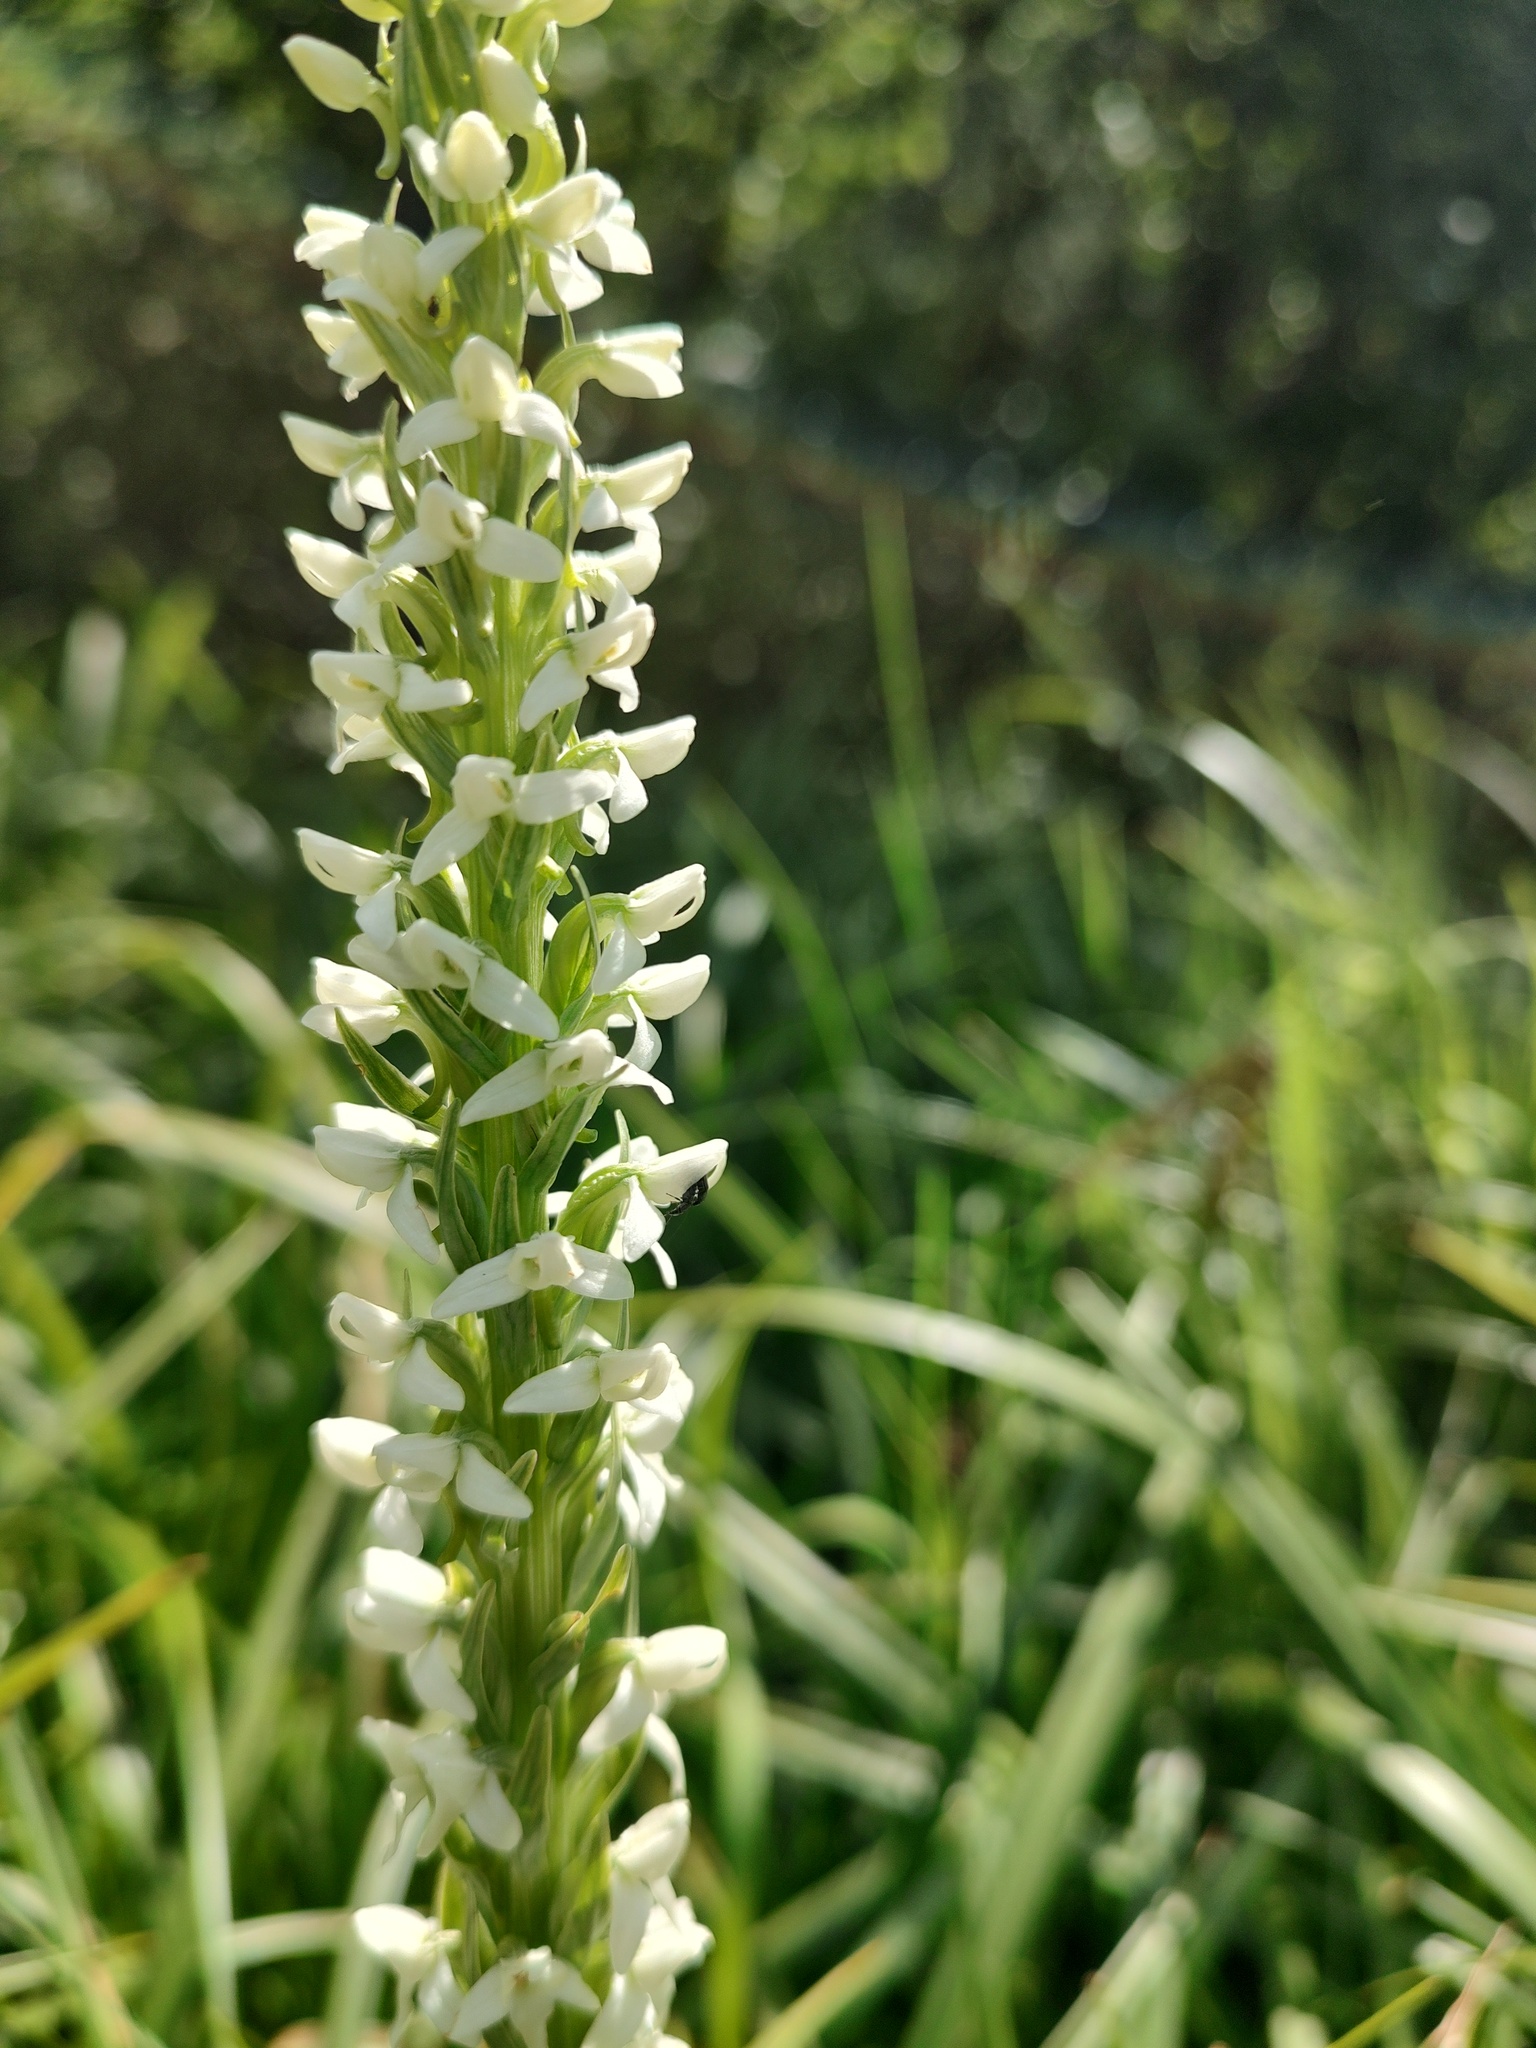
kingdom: Plantae
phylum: Tracheophyta
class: Liliopsida
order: Asparagales
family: Orchidaceae
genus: Platanthera
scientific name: Platanthera dilatata
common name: Bog candles
